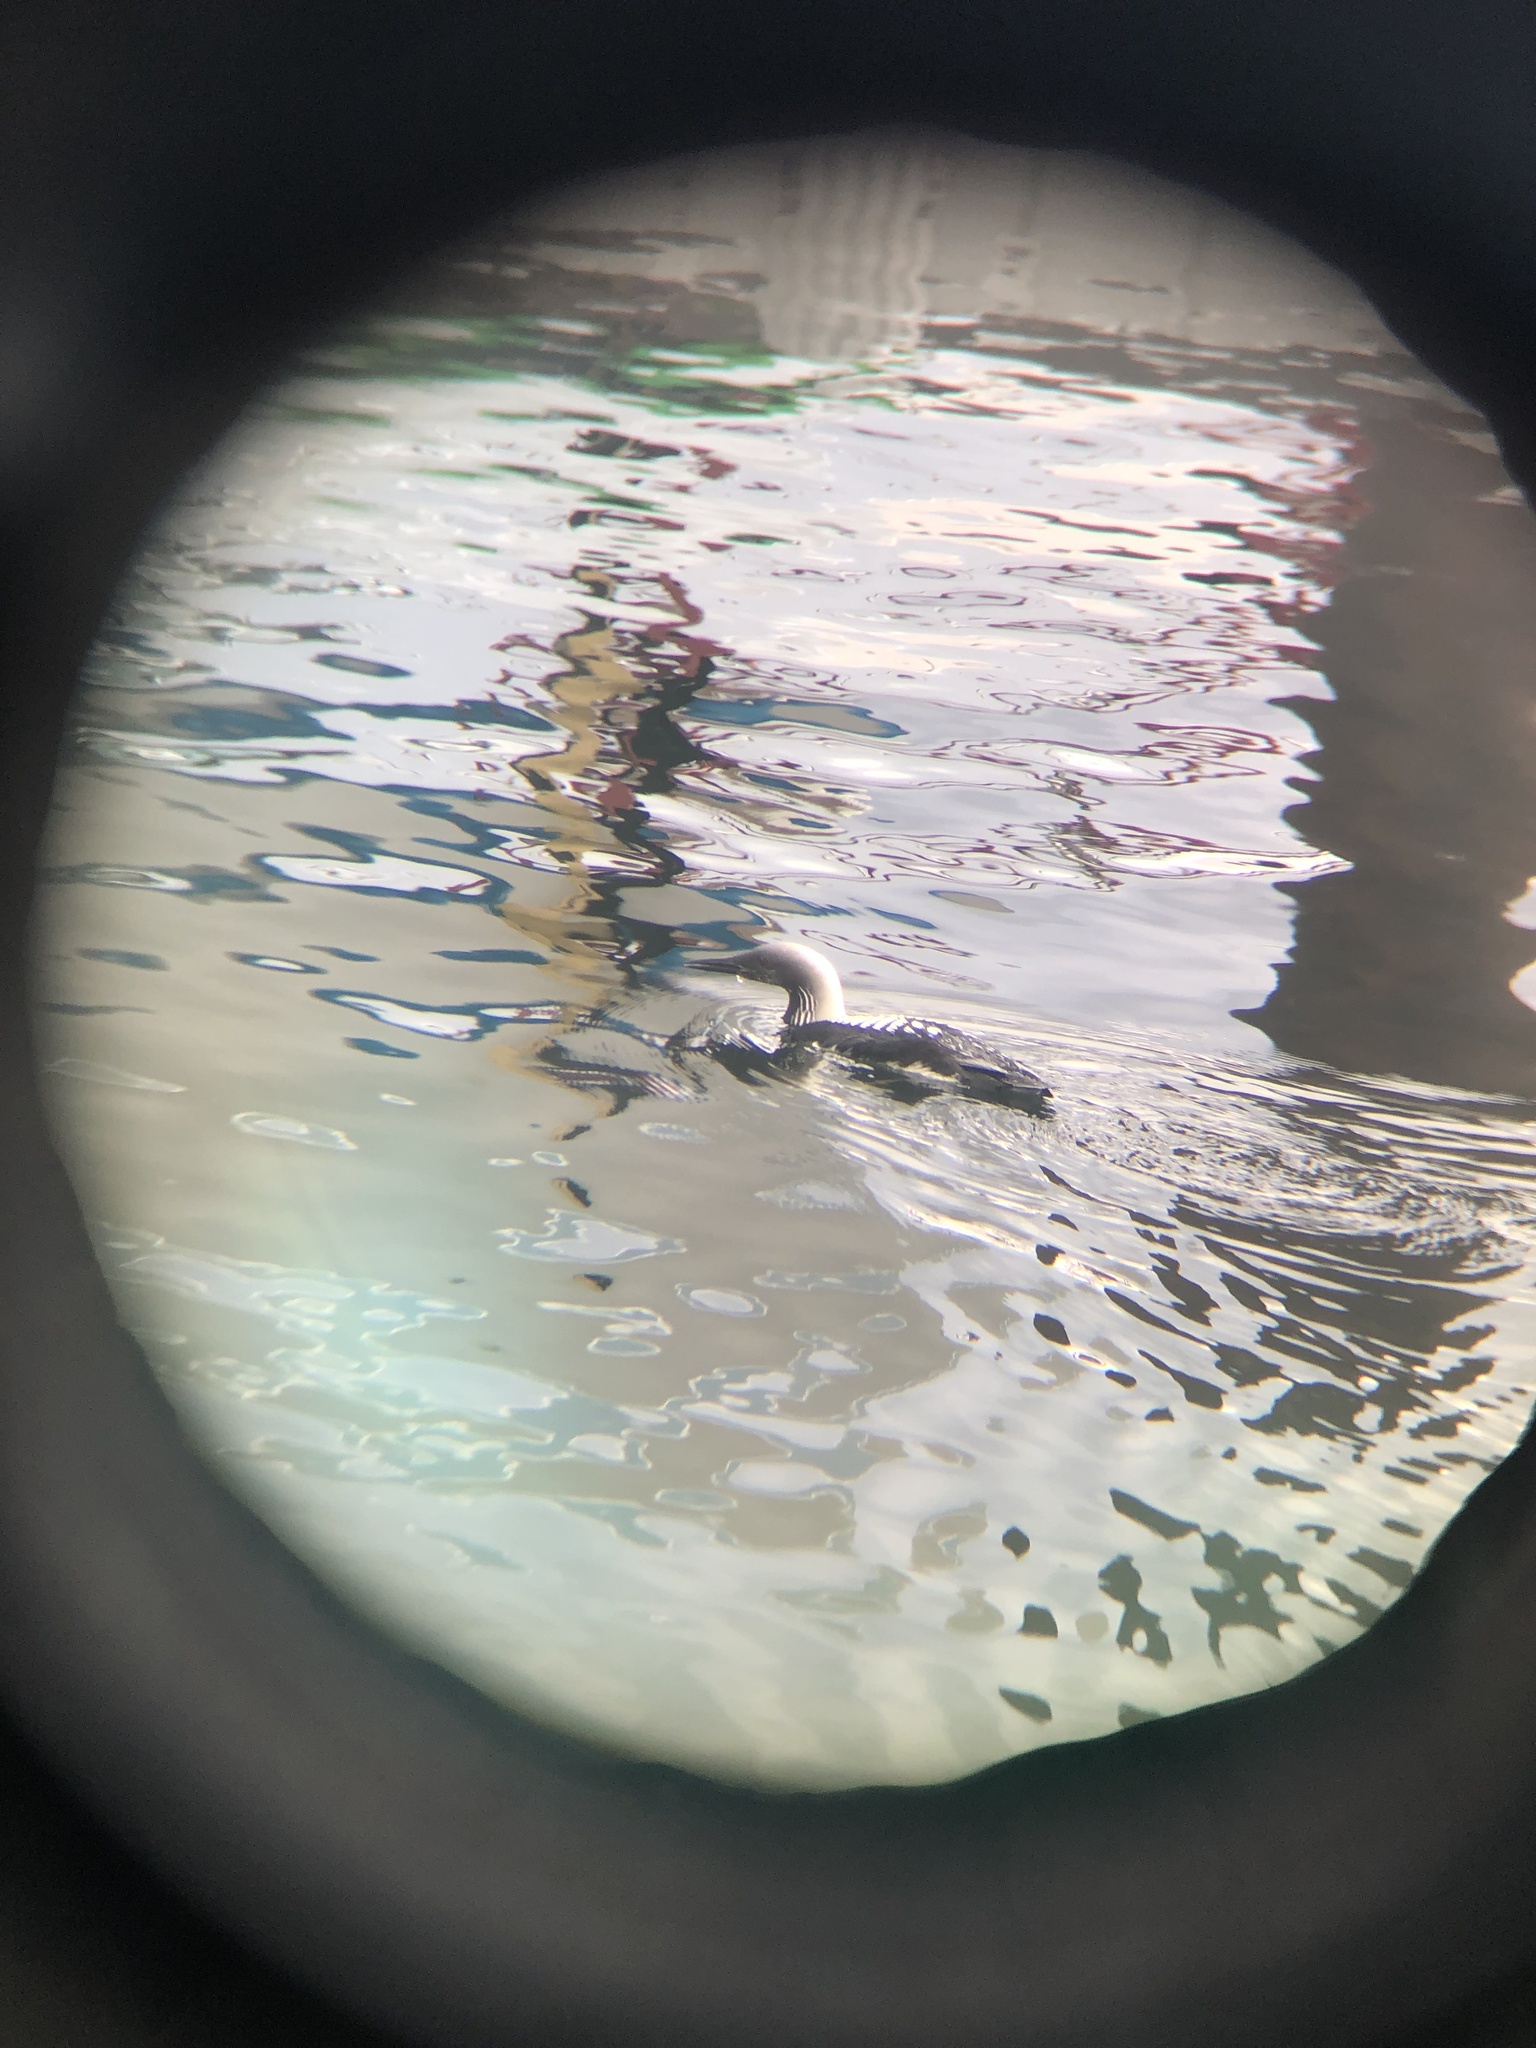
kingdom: Animalia
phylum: Chordata
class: Aves
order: Gaviiformes
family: Gaviidae
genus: Gavia
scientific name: Gavia pacifica
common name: Pacific loon
